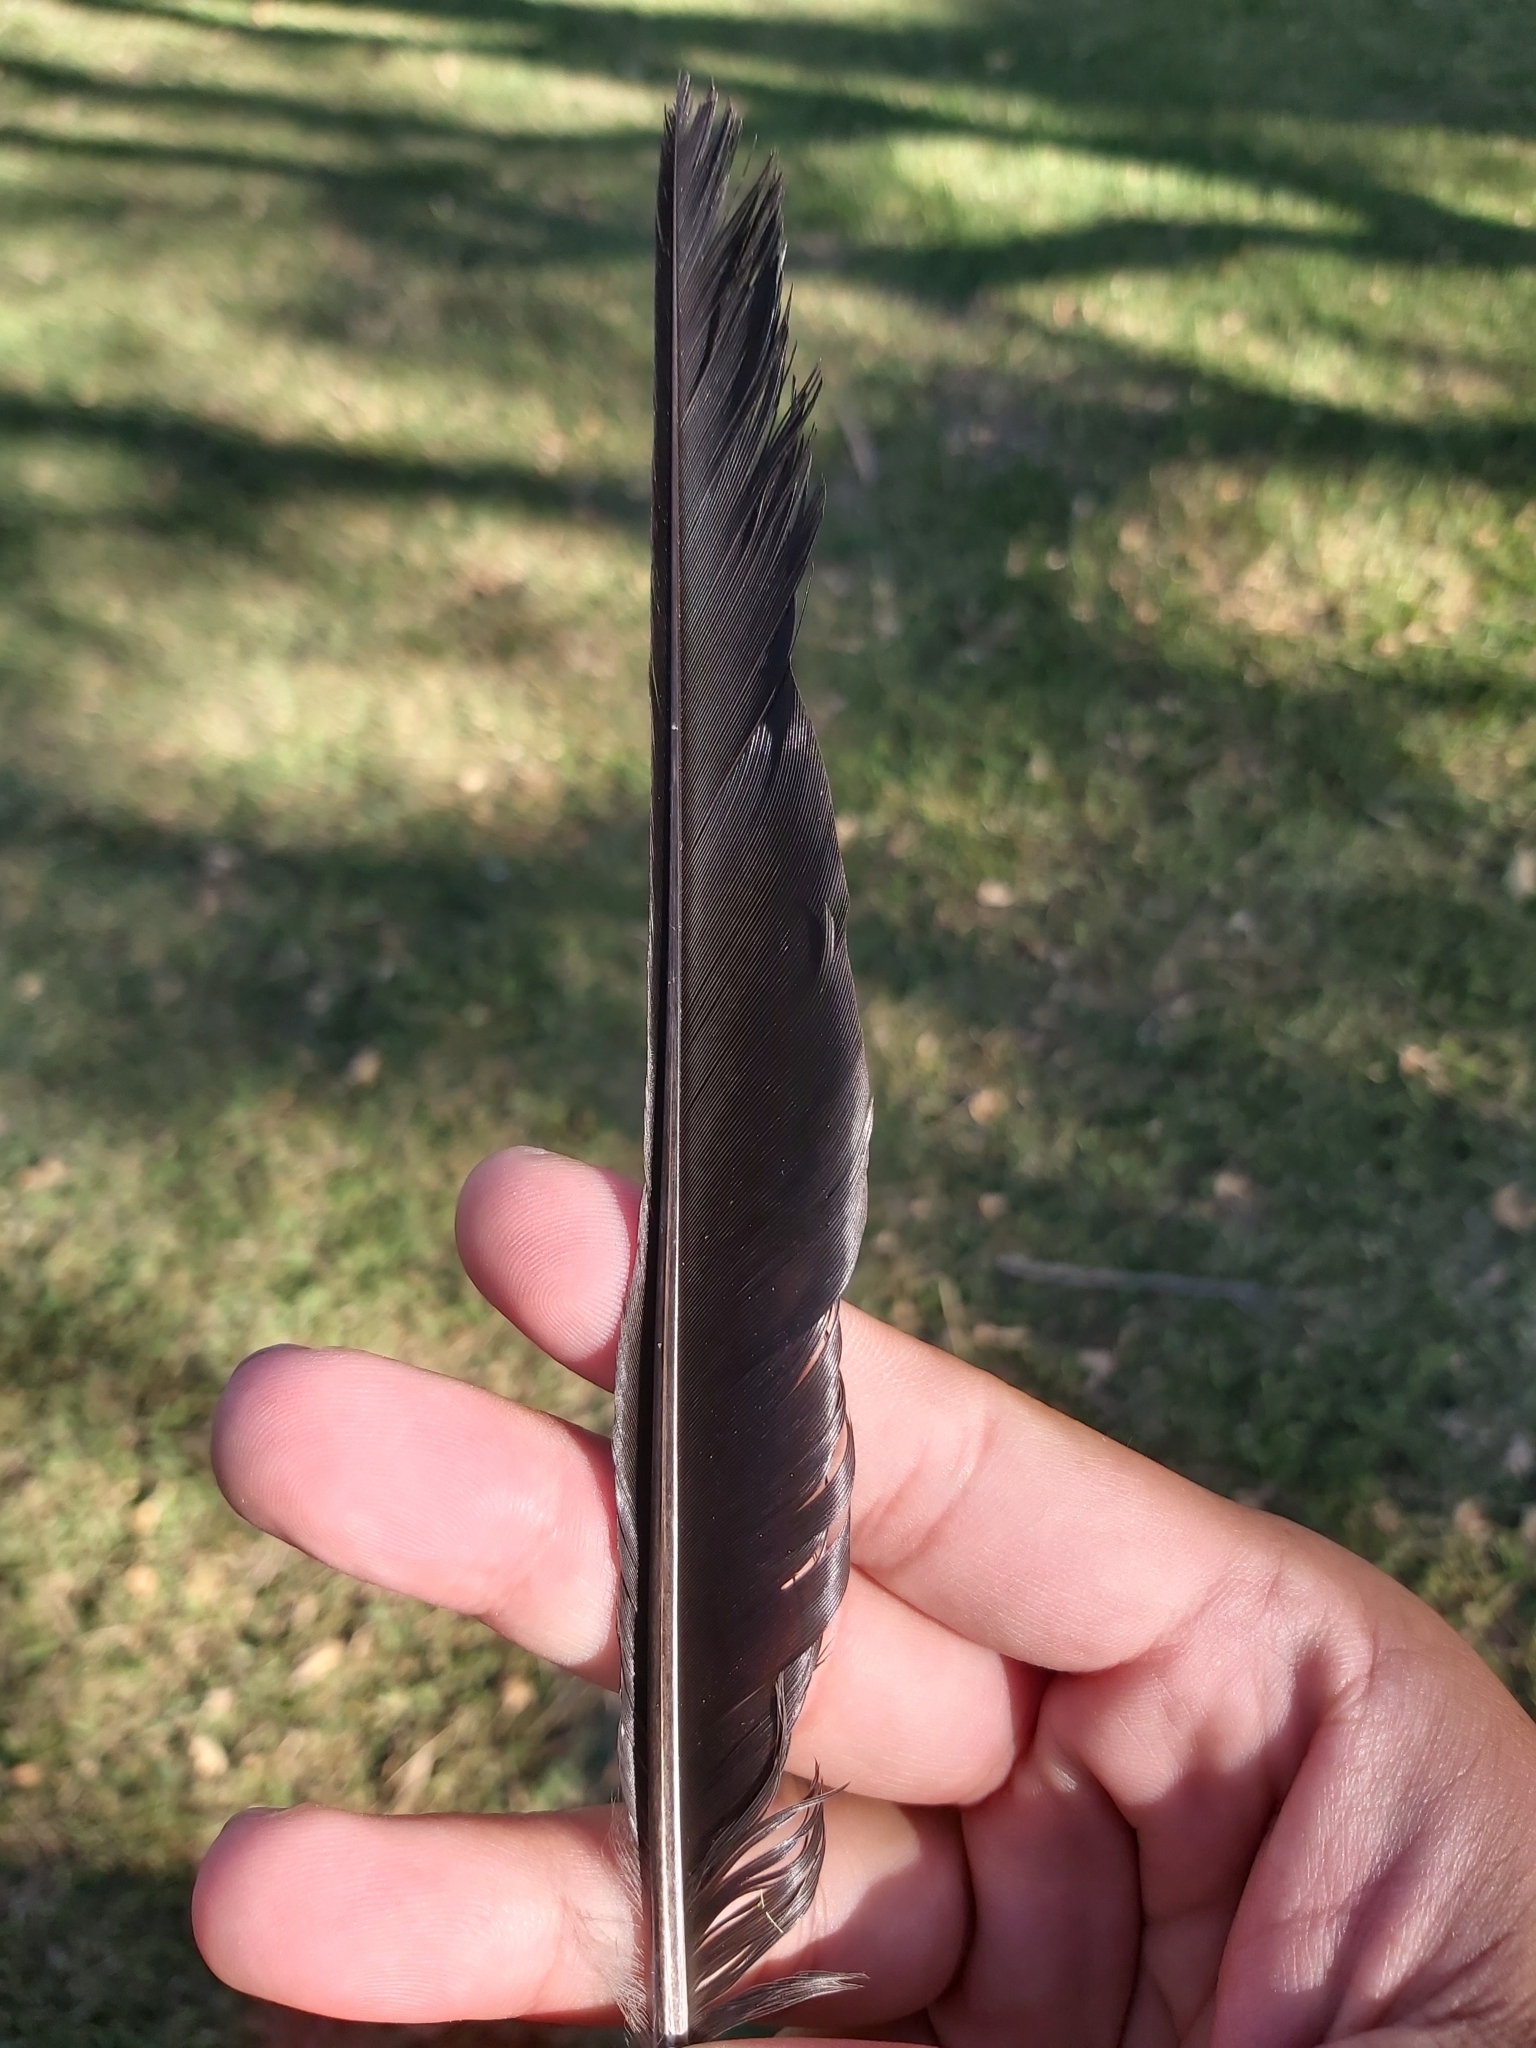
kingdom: Animalia
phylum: Chordata
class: Aves
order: Passeriformes
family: Cracticidae
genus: Gymnorhina
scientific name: Gymnorhina tibicen
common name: Australian magpie
